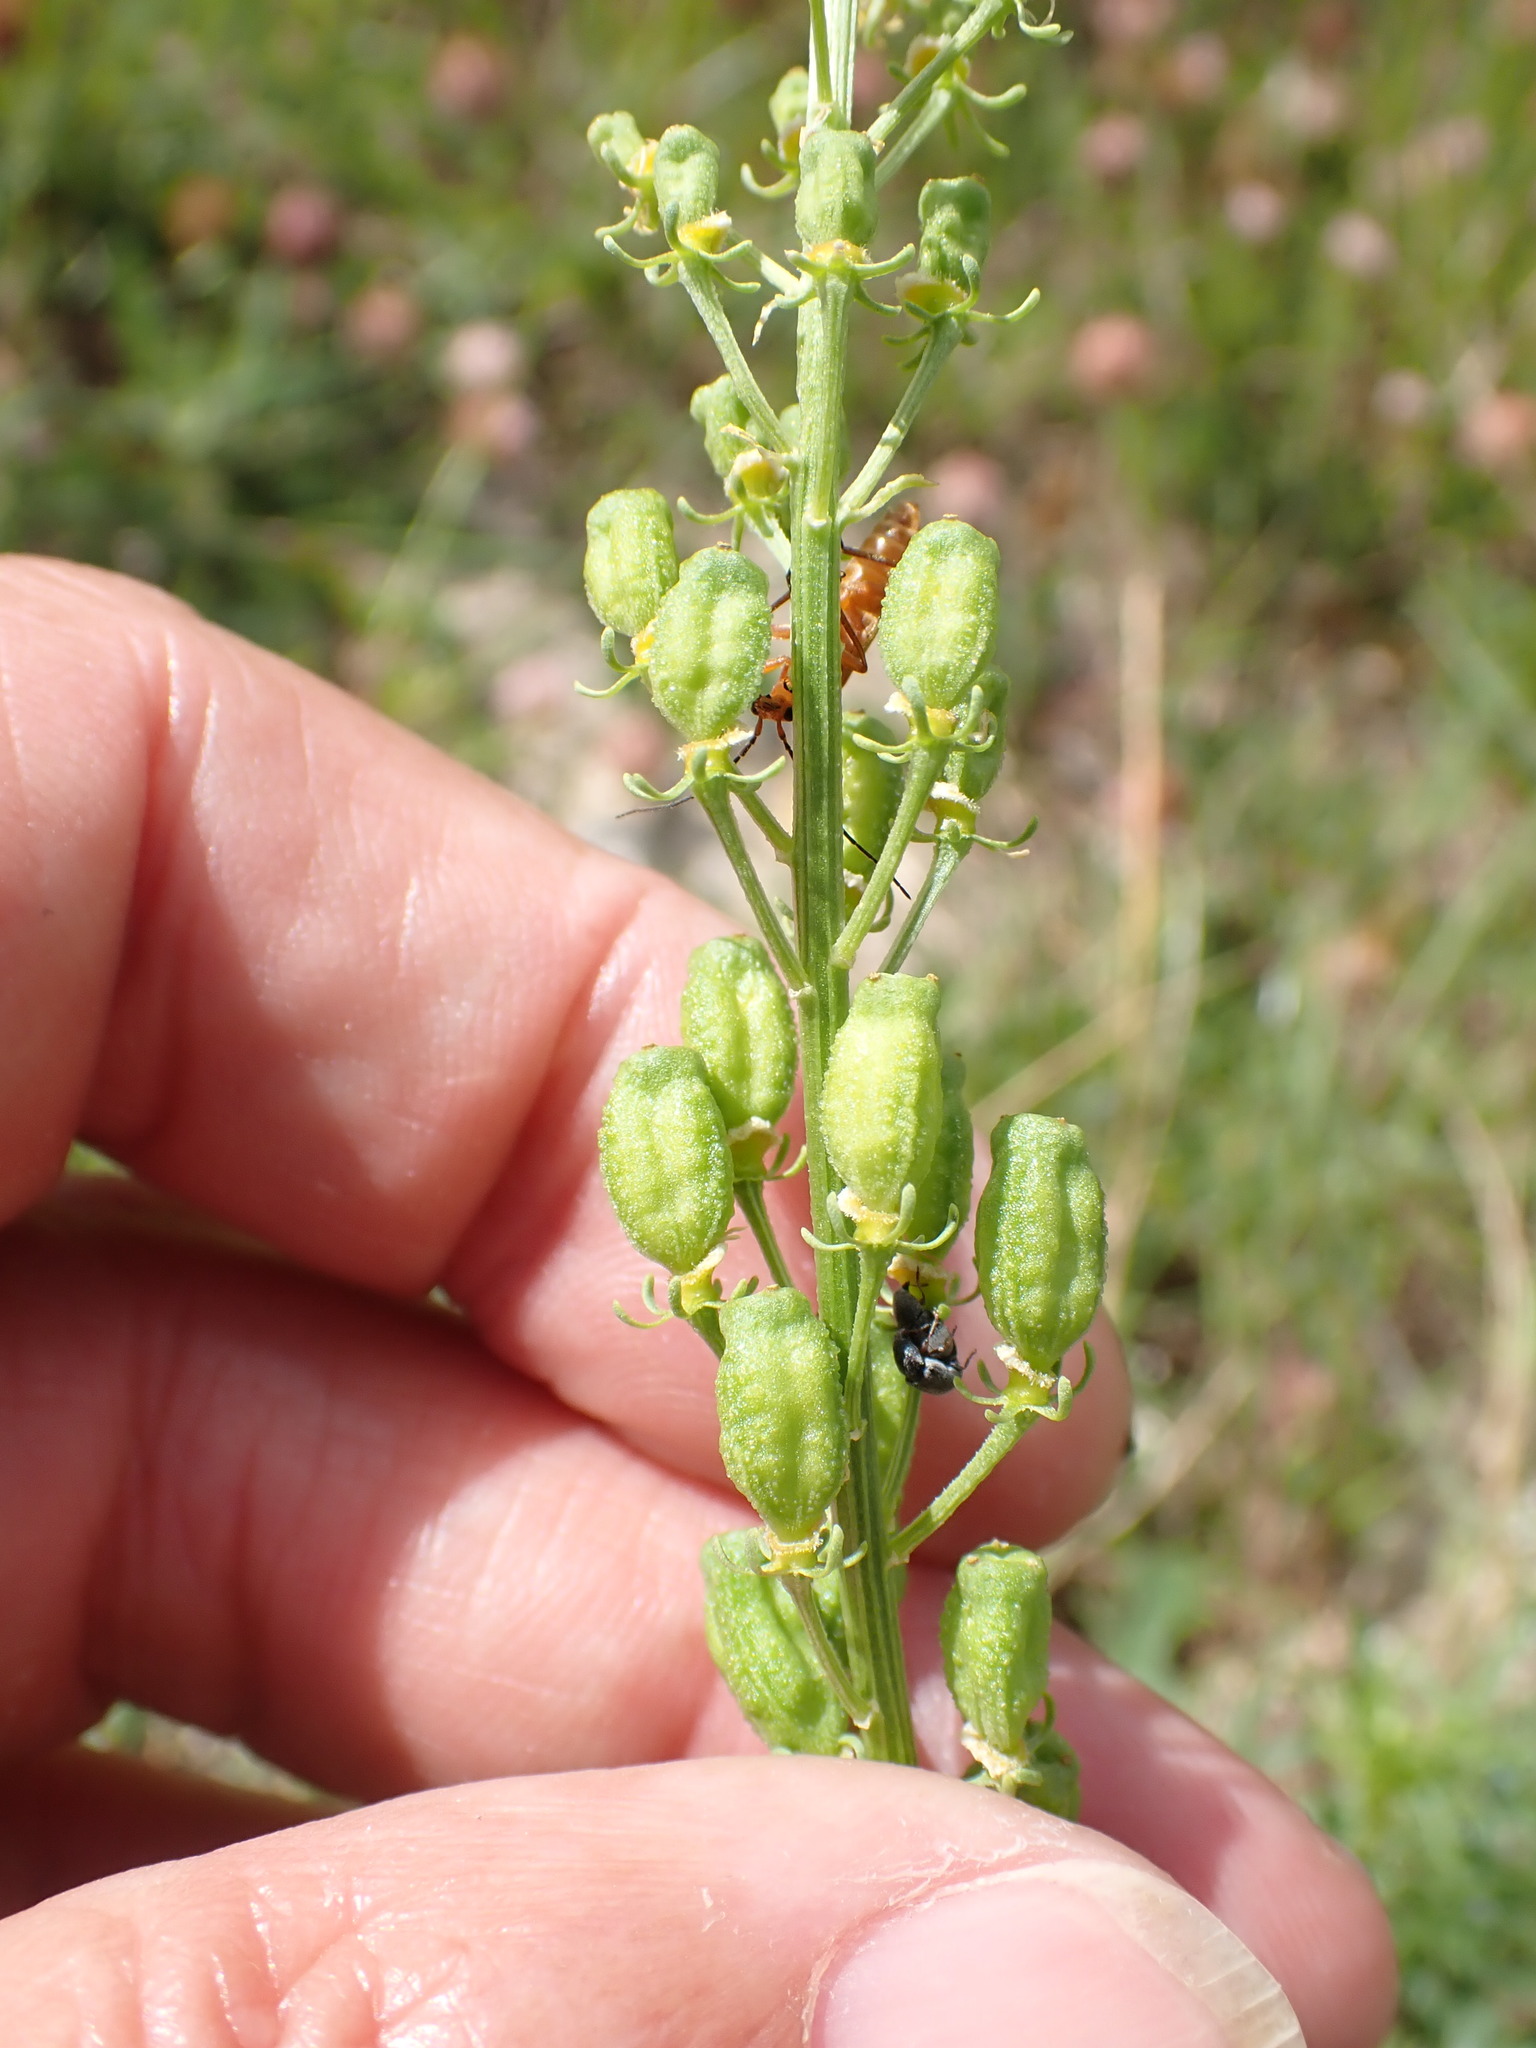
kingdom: Plantae
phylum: Tracheophyta
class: Magnoliopsida
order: Brassicales
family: Resedaceae
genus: Reseda
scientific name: Reseda lutea
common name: Wild mignonette
